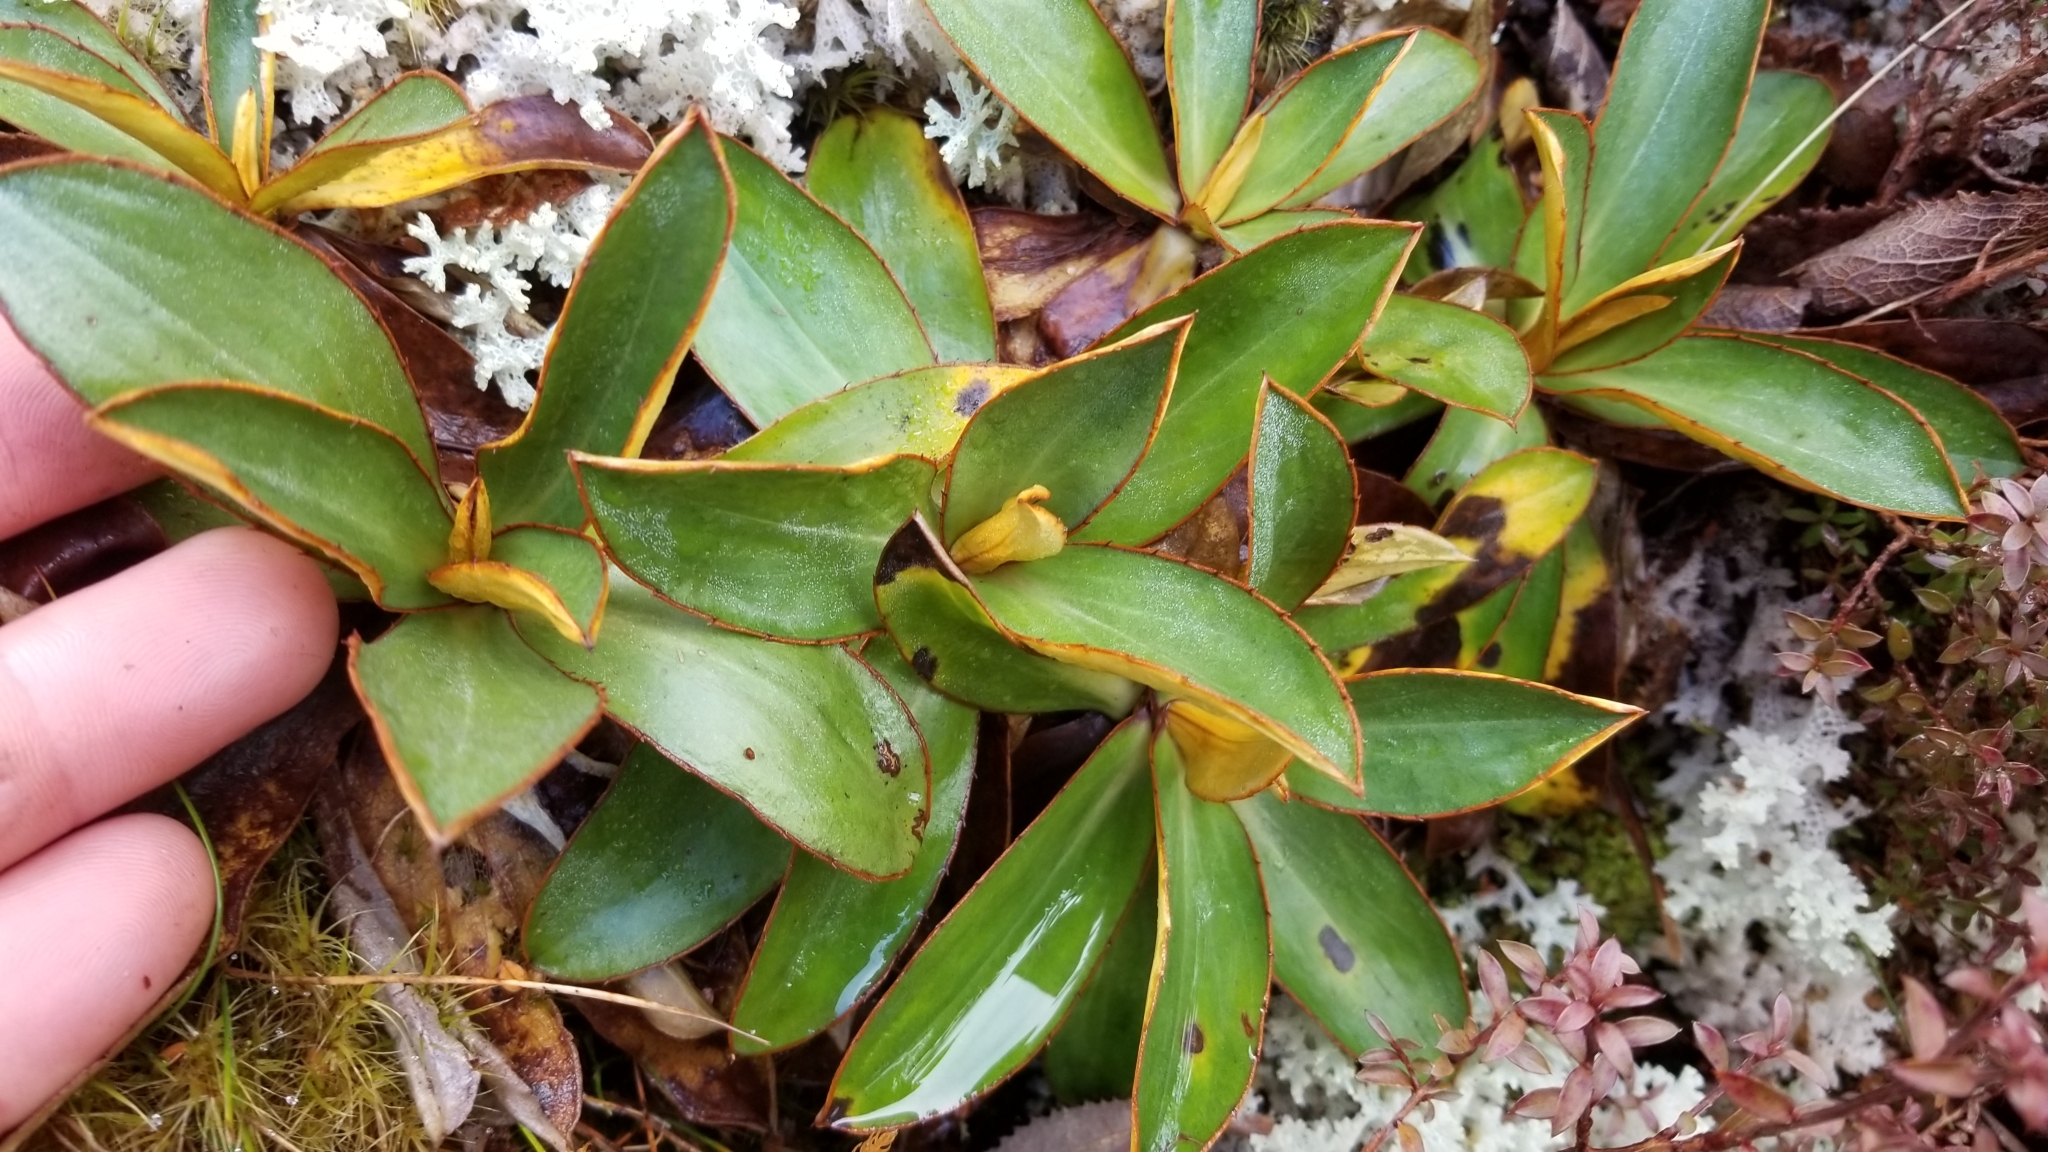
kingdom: Plantae
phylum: Tracheophyta
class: Magnoliopsida
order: Asterales
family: Asteraceae
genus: Celmisia
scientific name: Celmisia dallii
